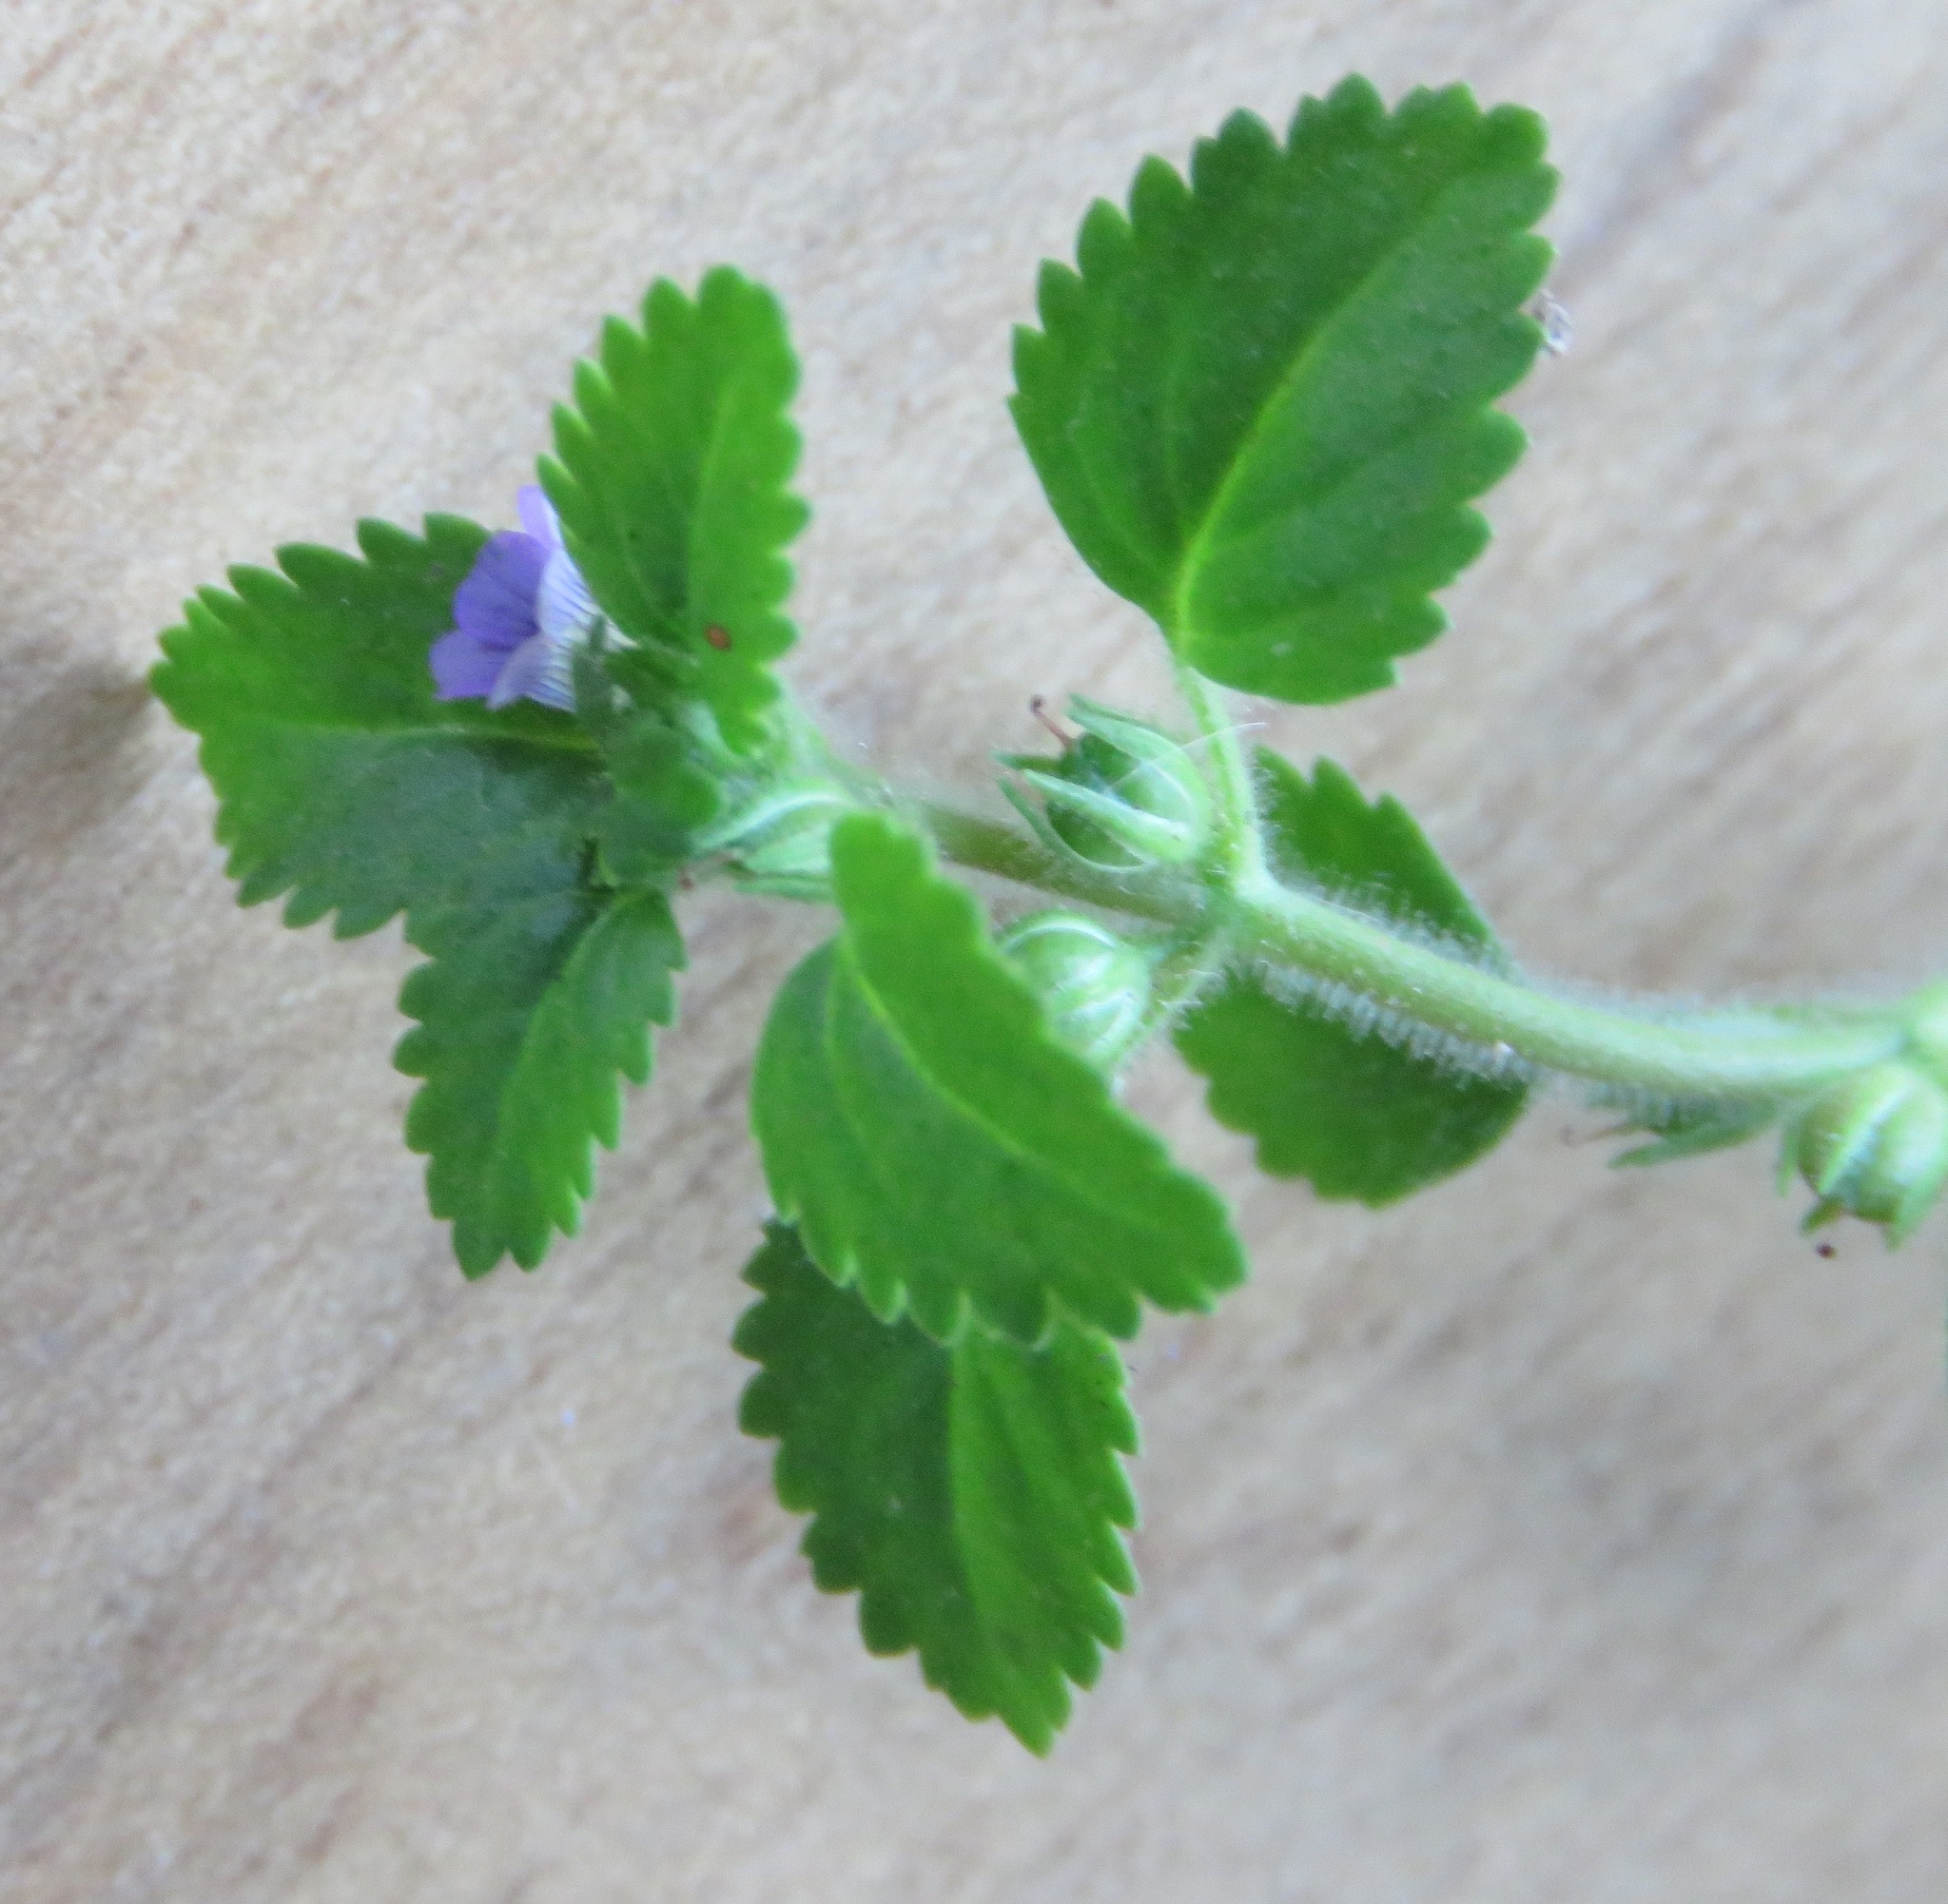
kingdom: Plantae
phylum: Tracheophyta
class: Magnoliopsida
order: Lamiales
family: Plantaginaceae
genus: Stemodia
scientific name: Stemodia verticillata
